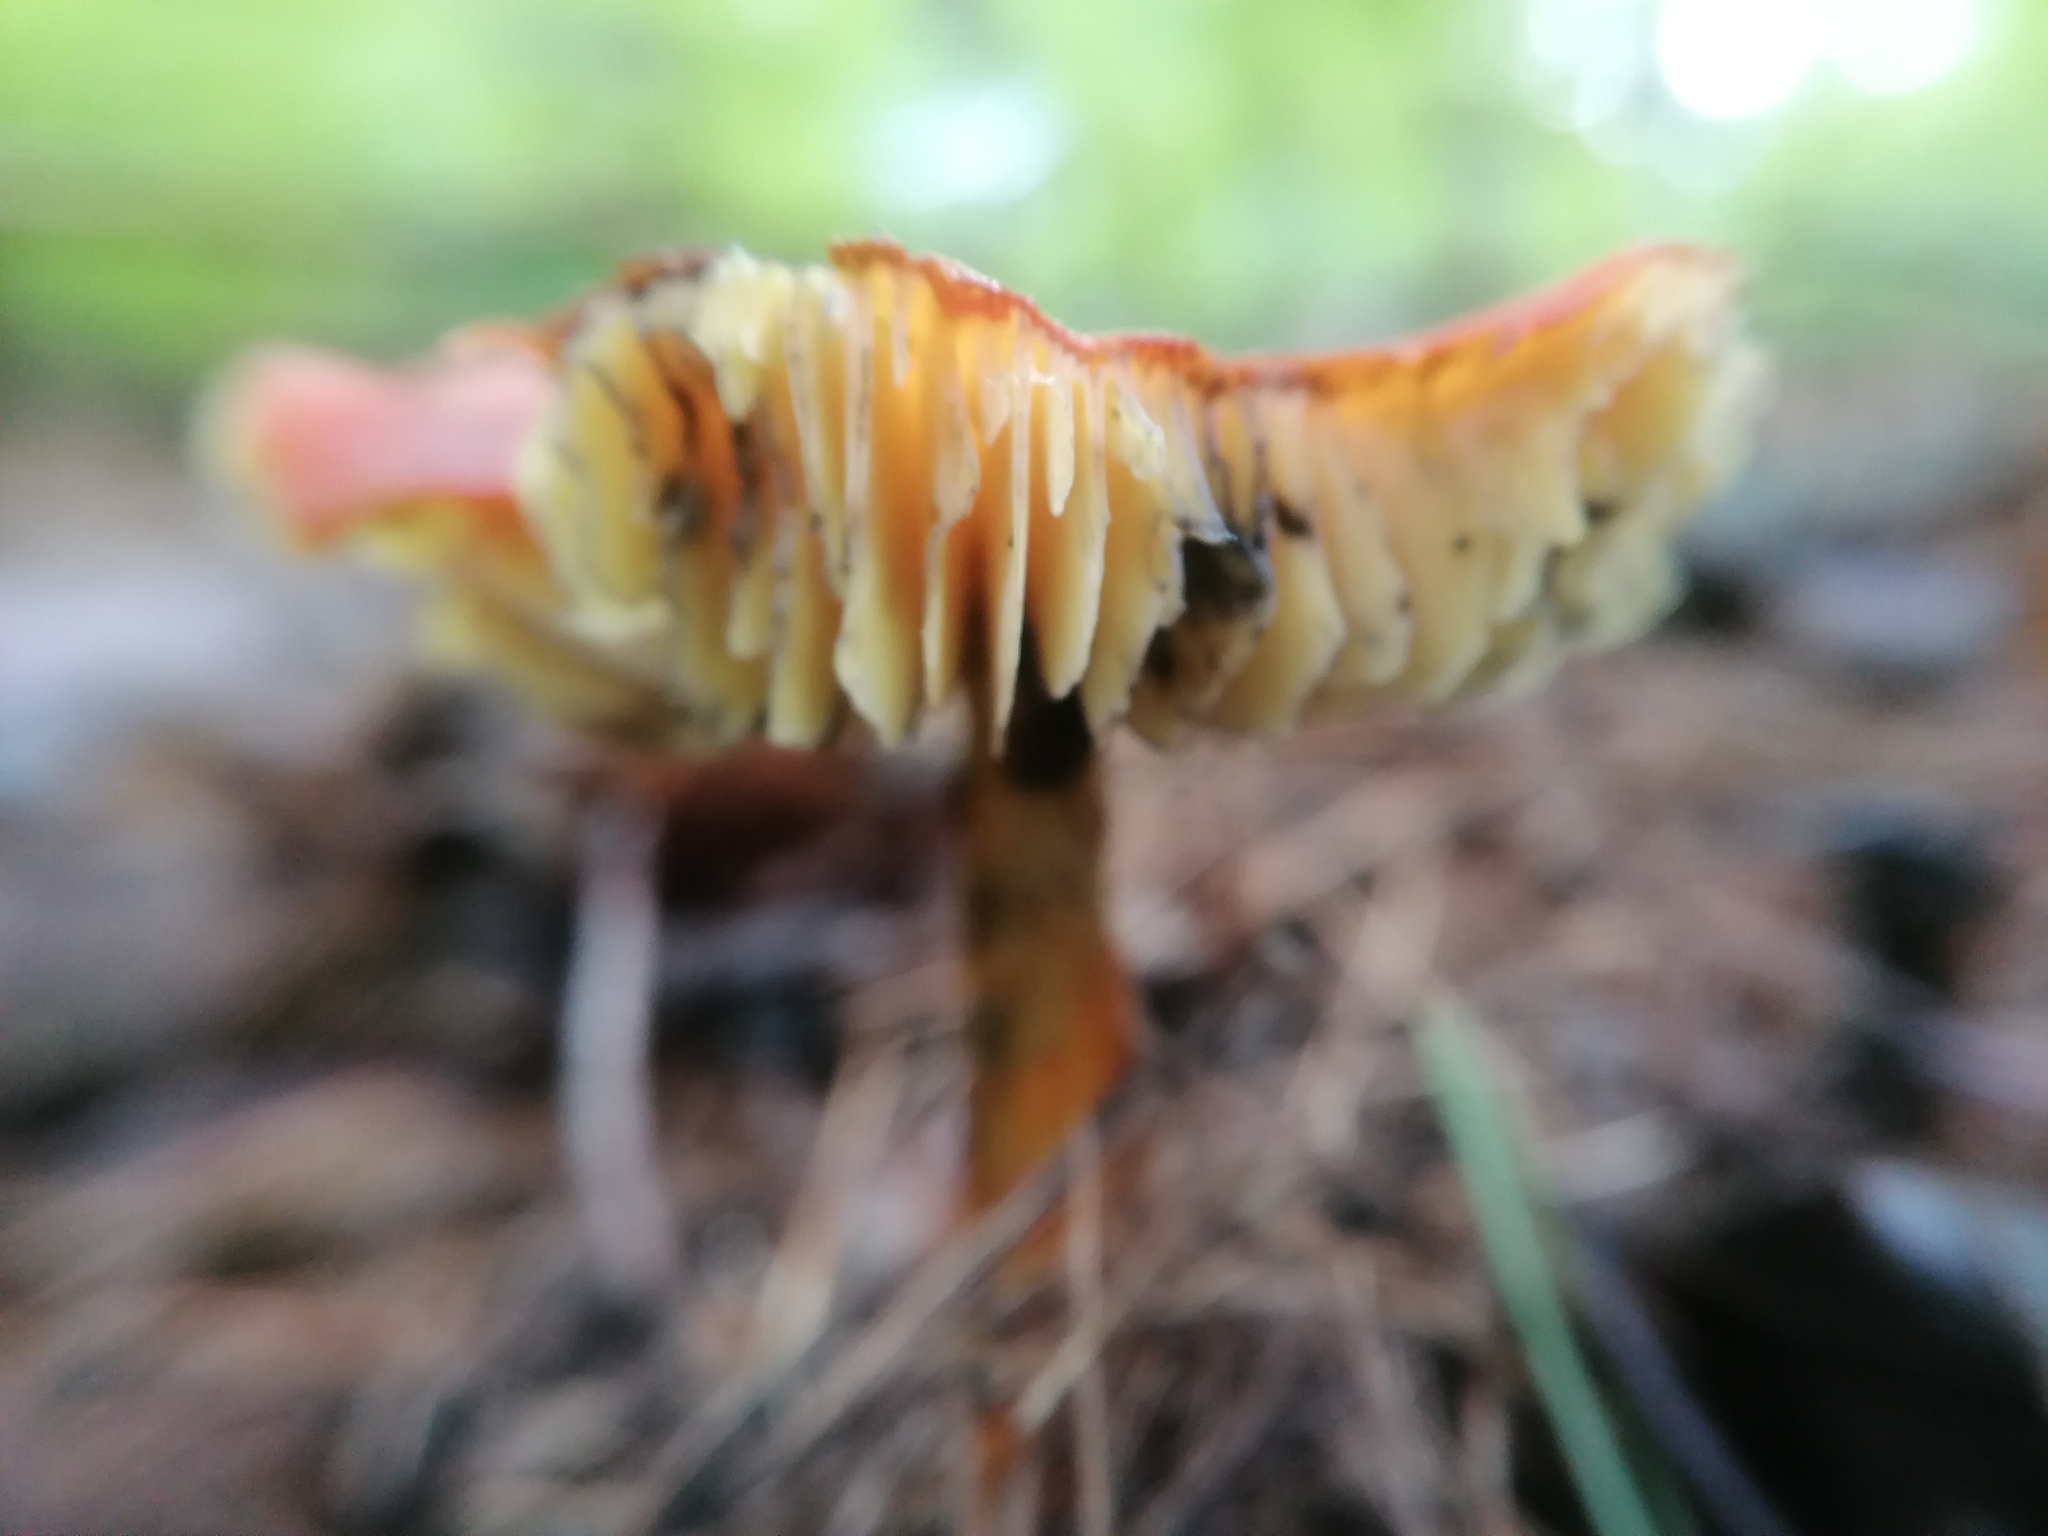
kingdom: Fungi
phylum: Basidiomycota
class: Agaricomycetes
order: Agaricales
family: Hygrophoraceae
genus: Hygrocybe
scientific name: Hygrocybe conica
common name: Blackening wax-cap
